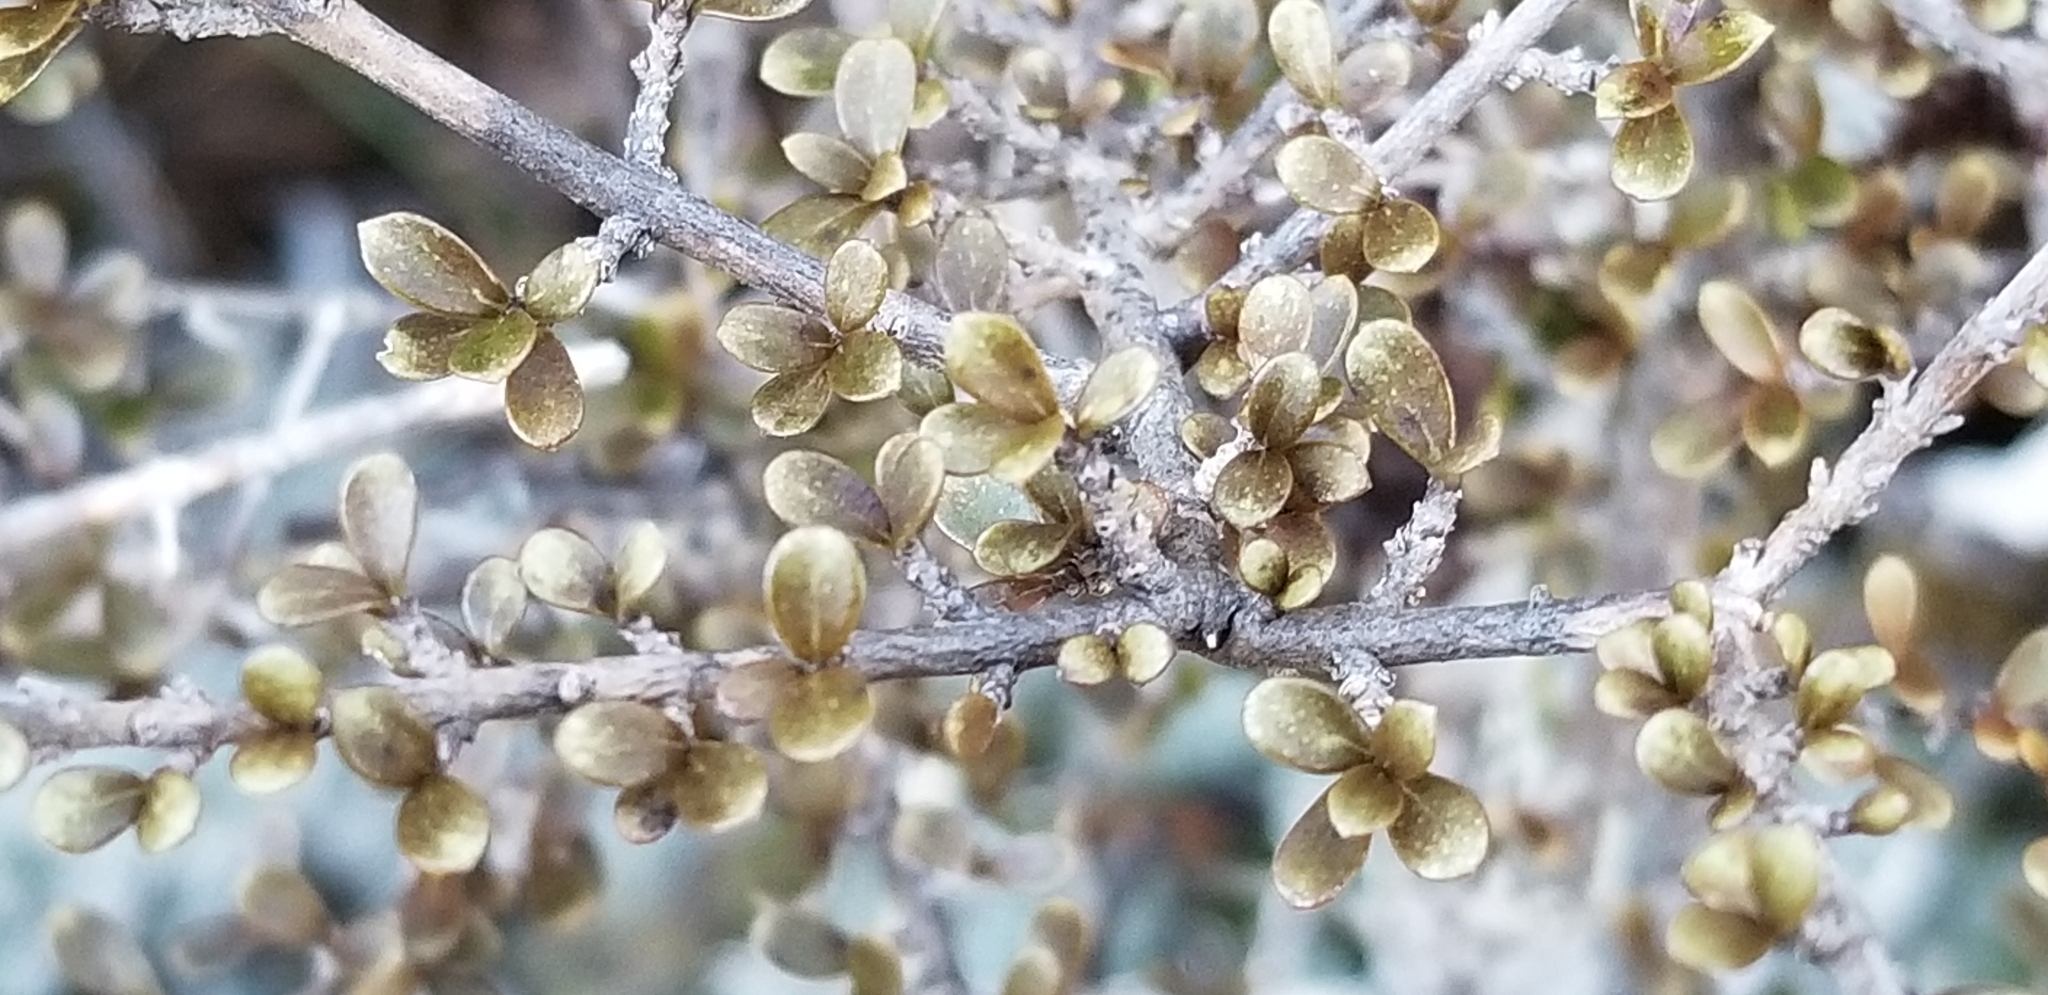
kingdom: Plantae
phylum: Tracheophyta
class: Magnoliopsida
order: Gentianales
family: Rubiaceae
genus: Coprosma
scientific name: Coprosma dumosa
